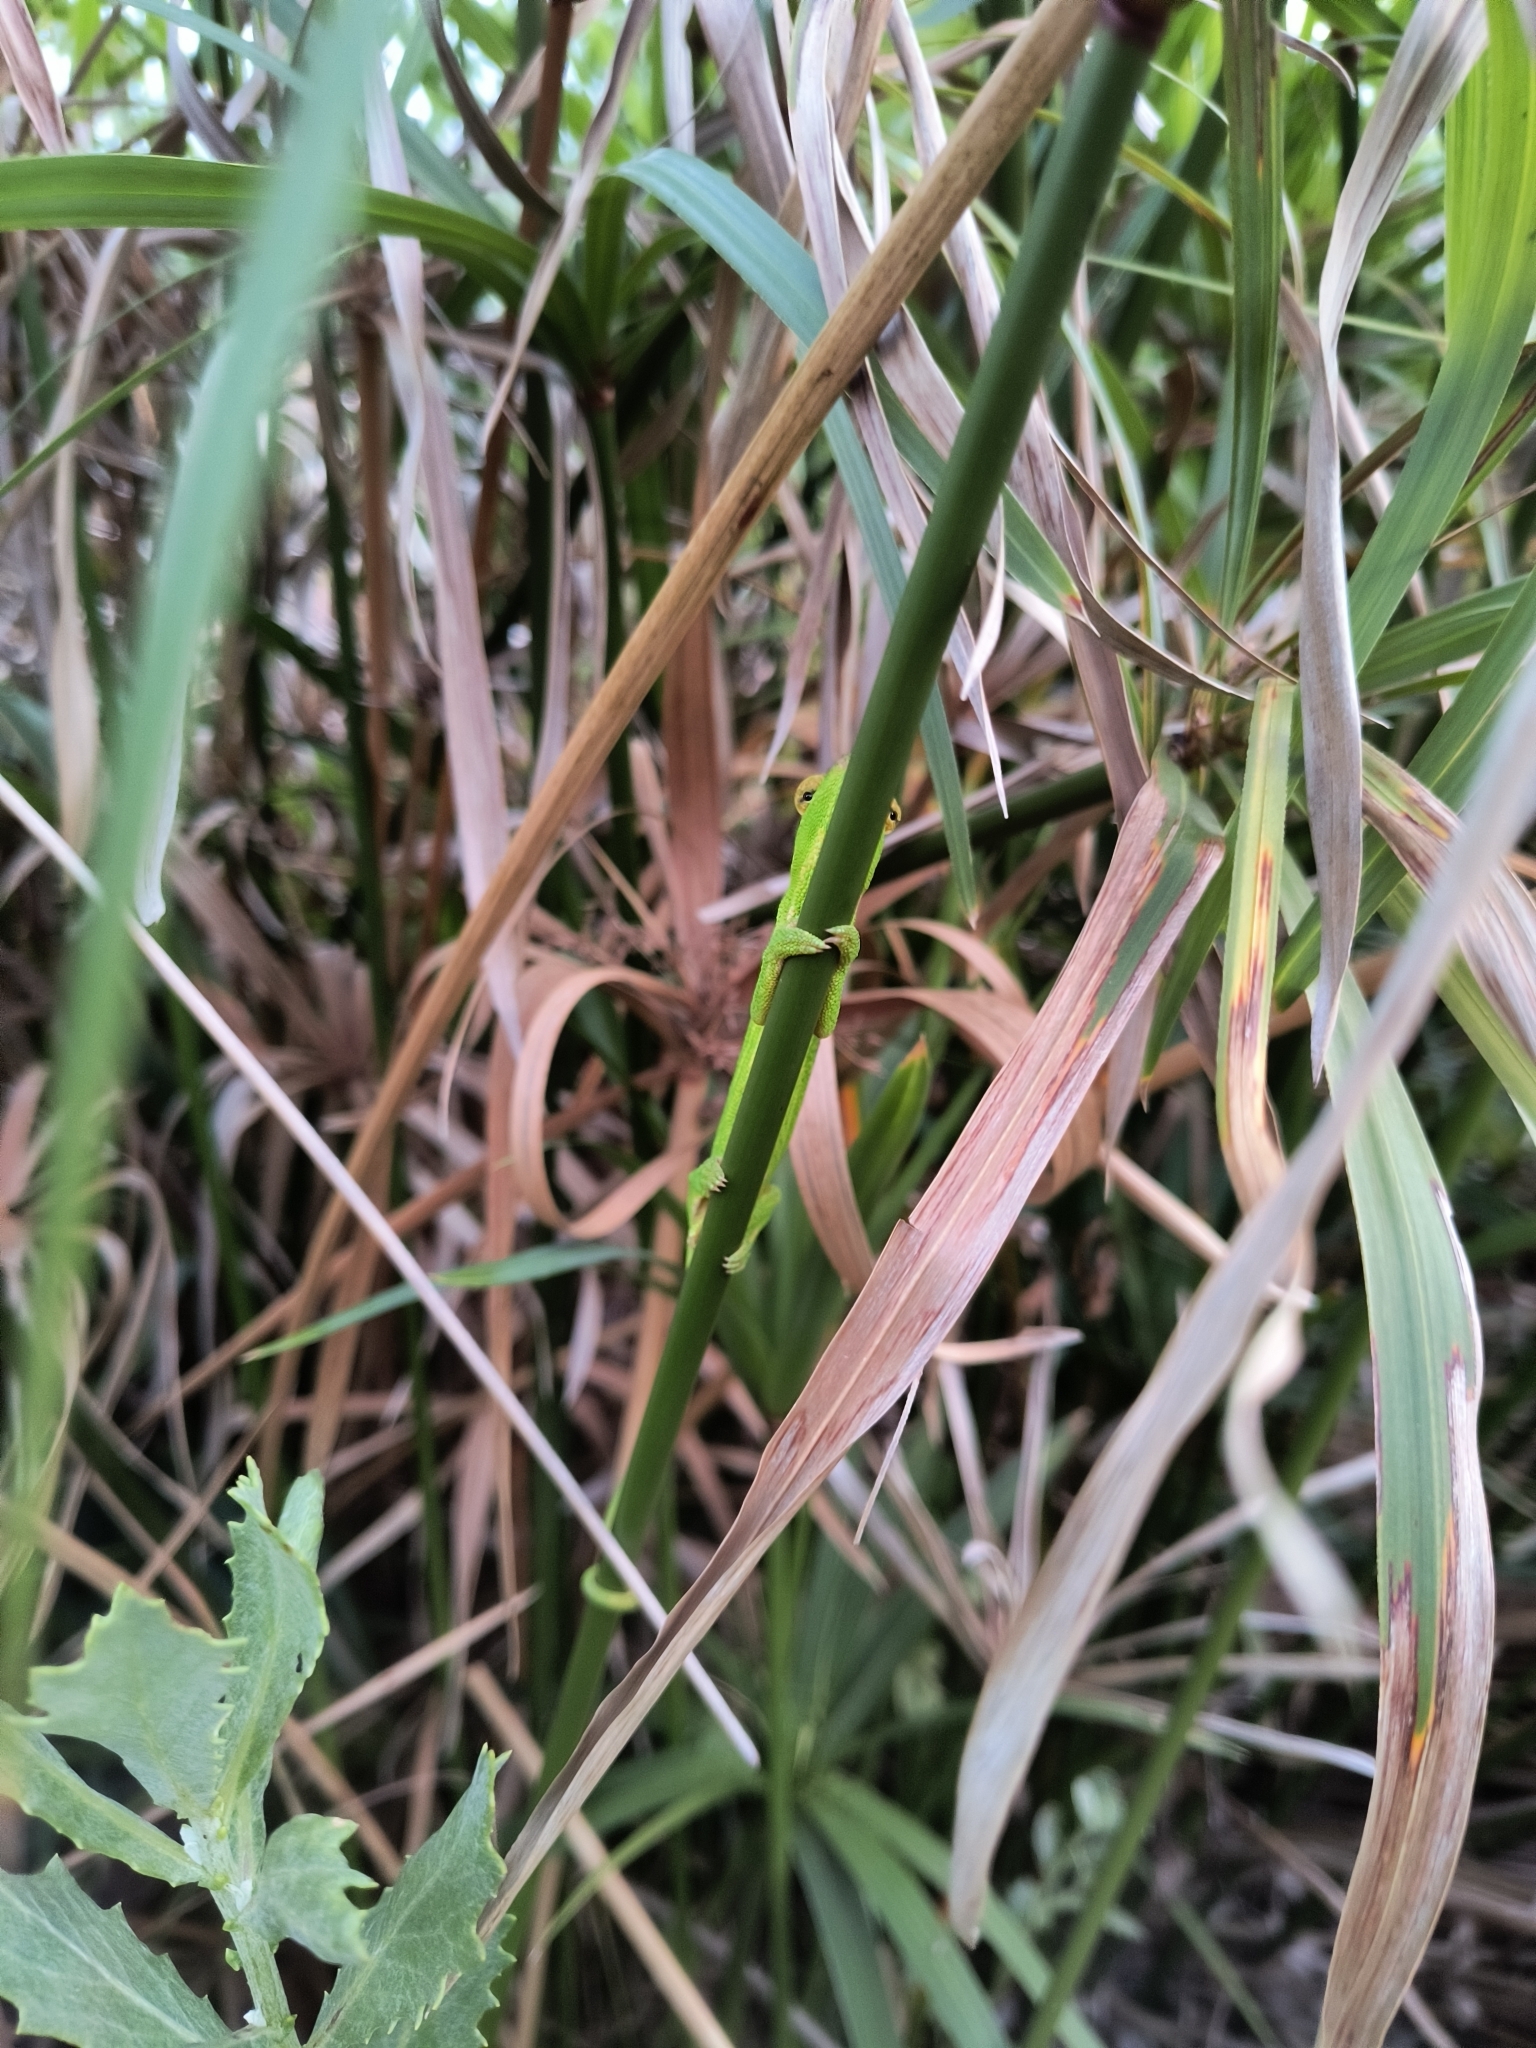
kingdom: Animalia
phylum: Chordata
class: Squamata
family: Chamaeleonidae
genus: Bradypodion
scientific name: Bradypodion pumilum
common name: Cape dwarf chameleon
